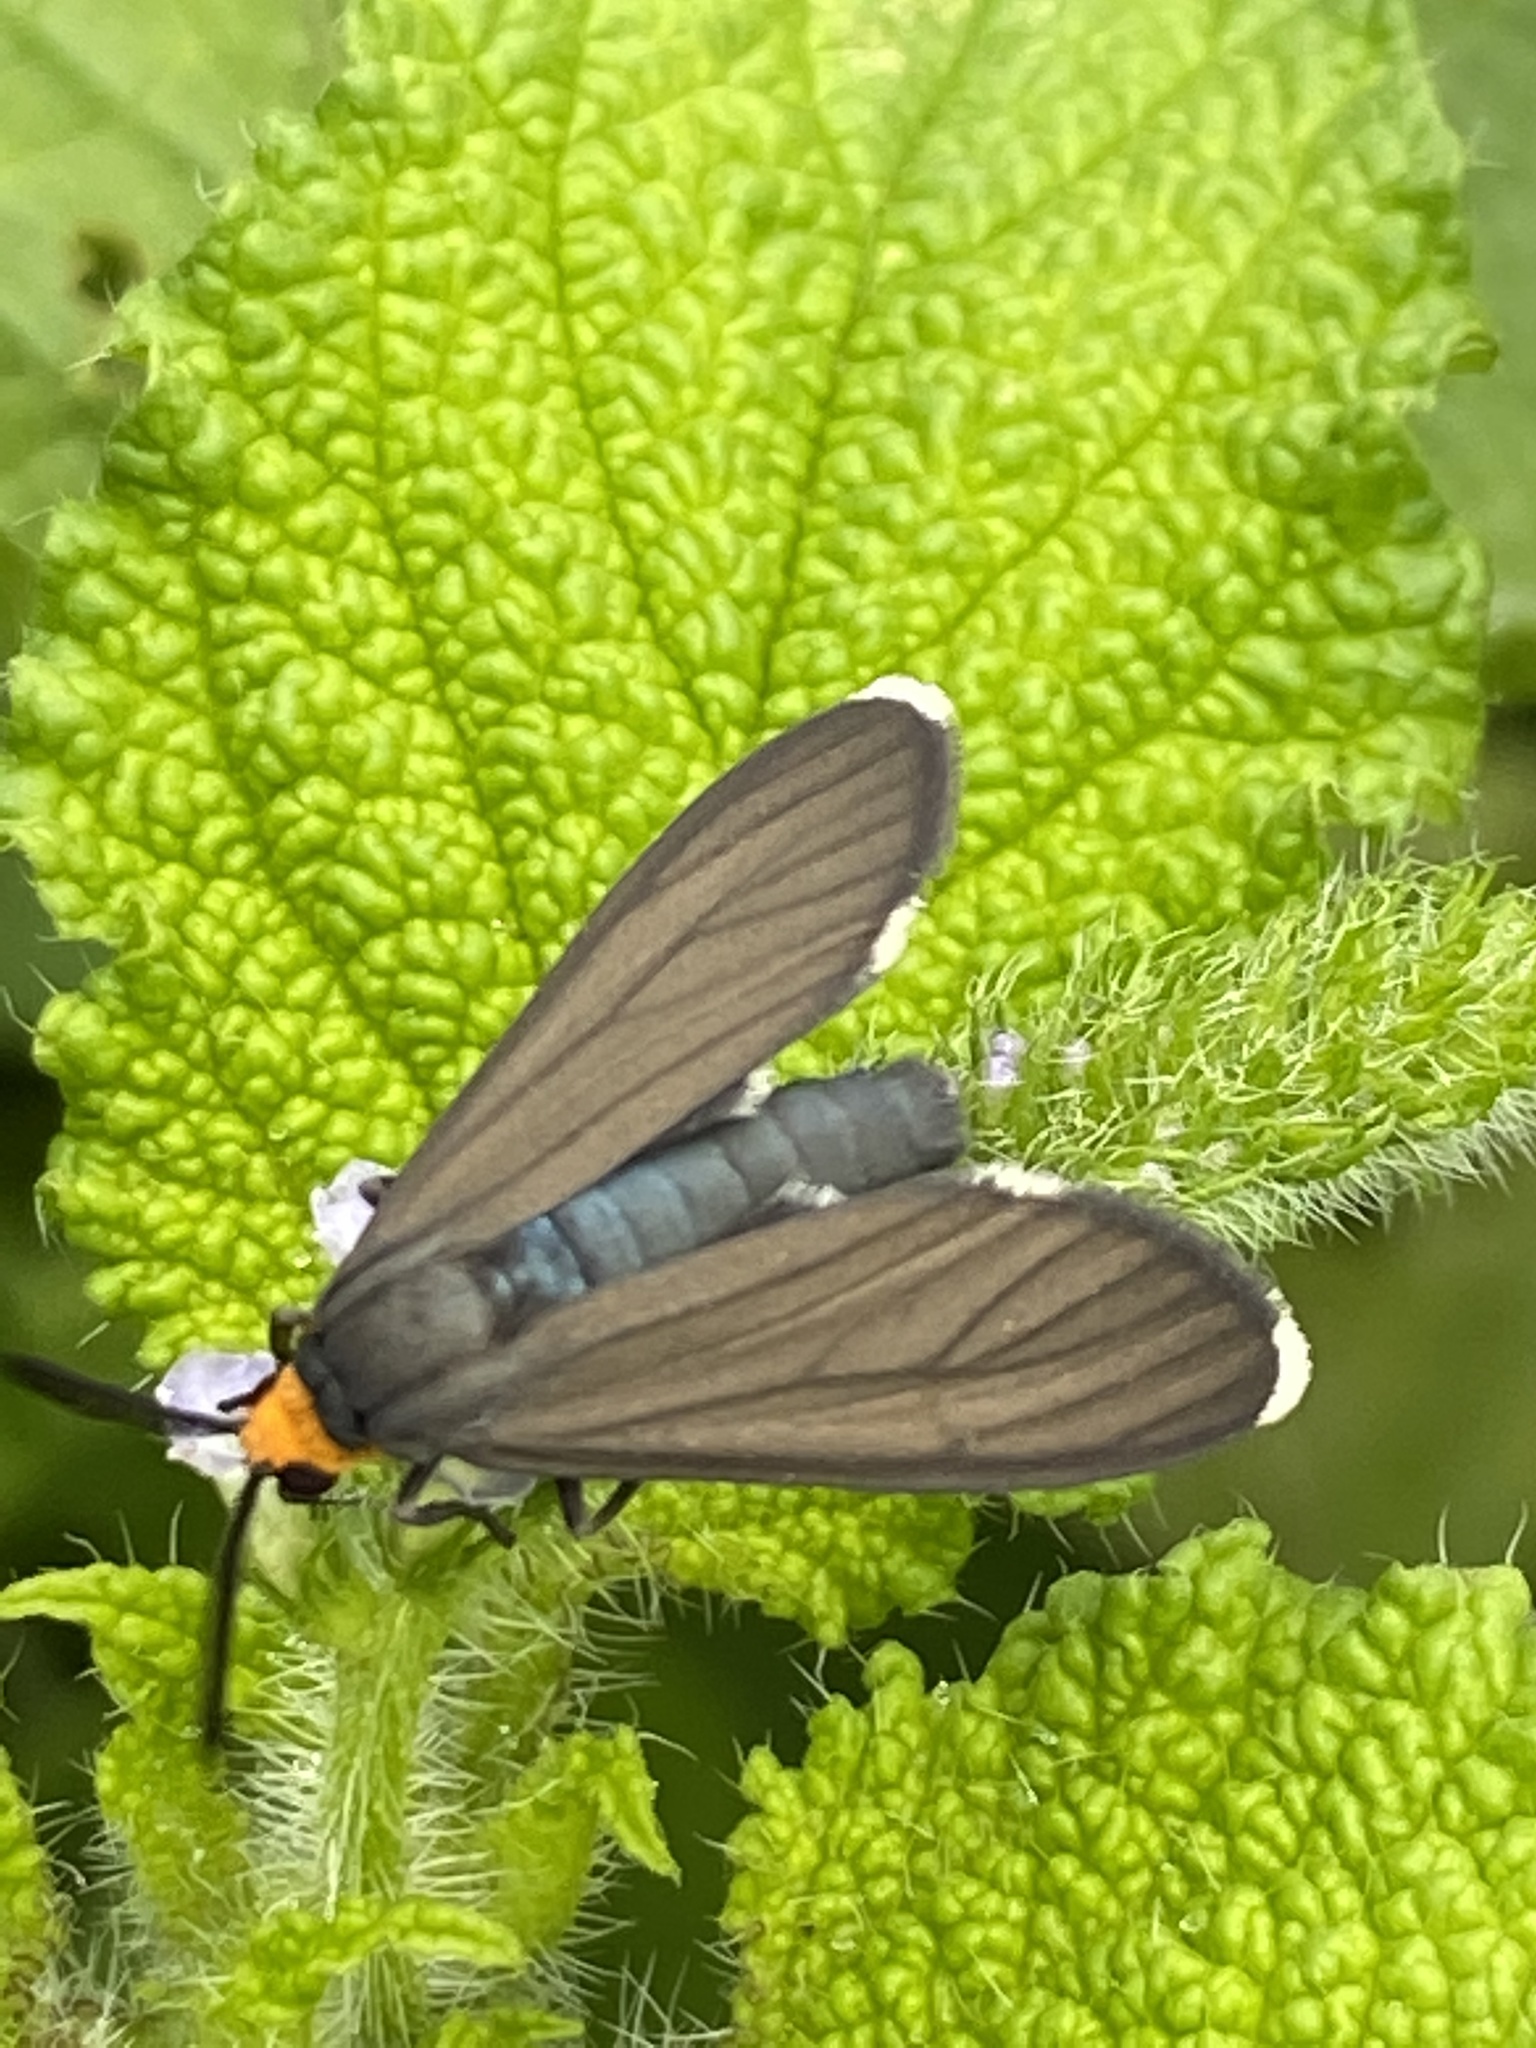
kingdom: Animalia
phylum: Arthropoda
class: Insecta
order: Lepidoptera
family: Erebidae
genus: Ctenucha
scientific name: Ctenucha rubriceps
